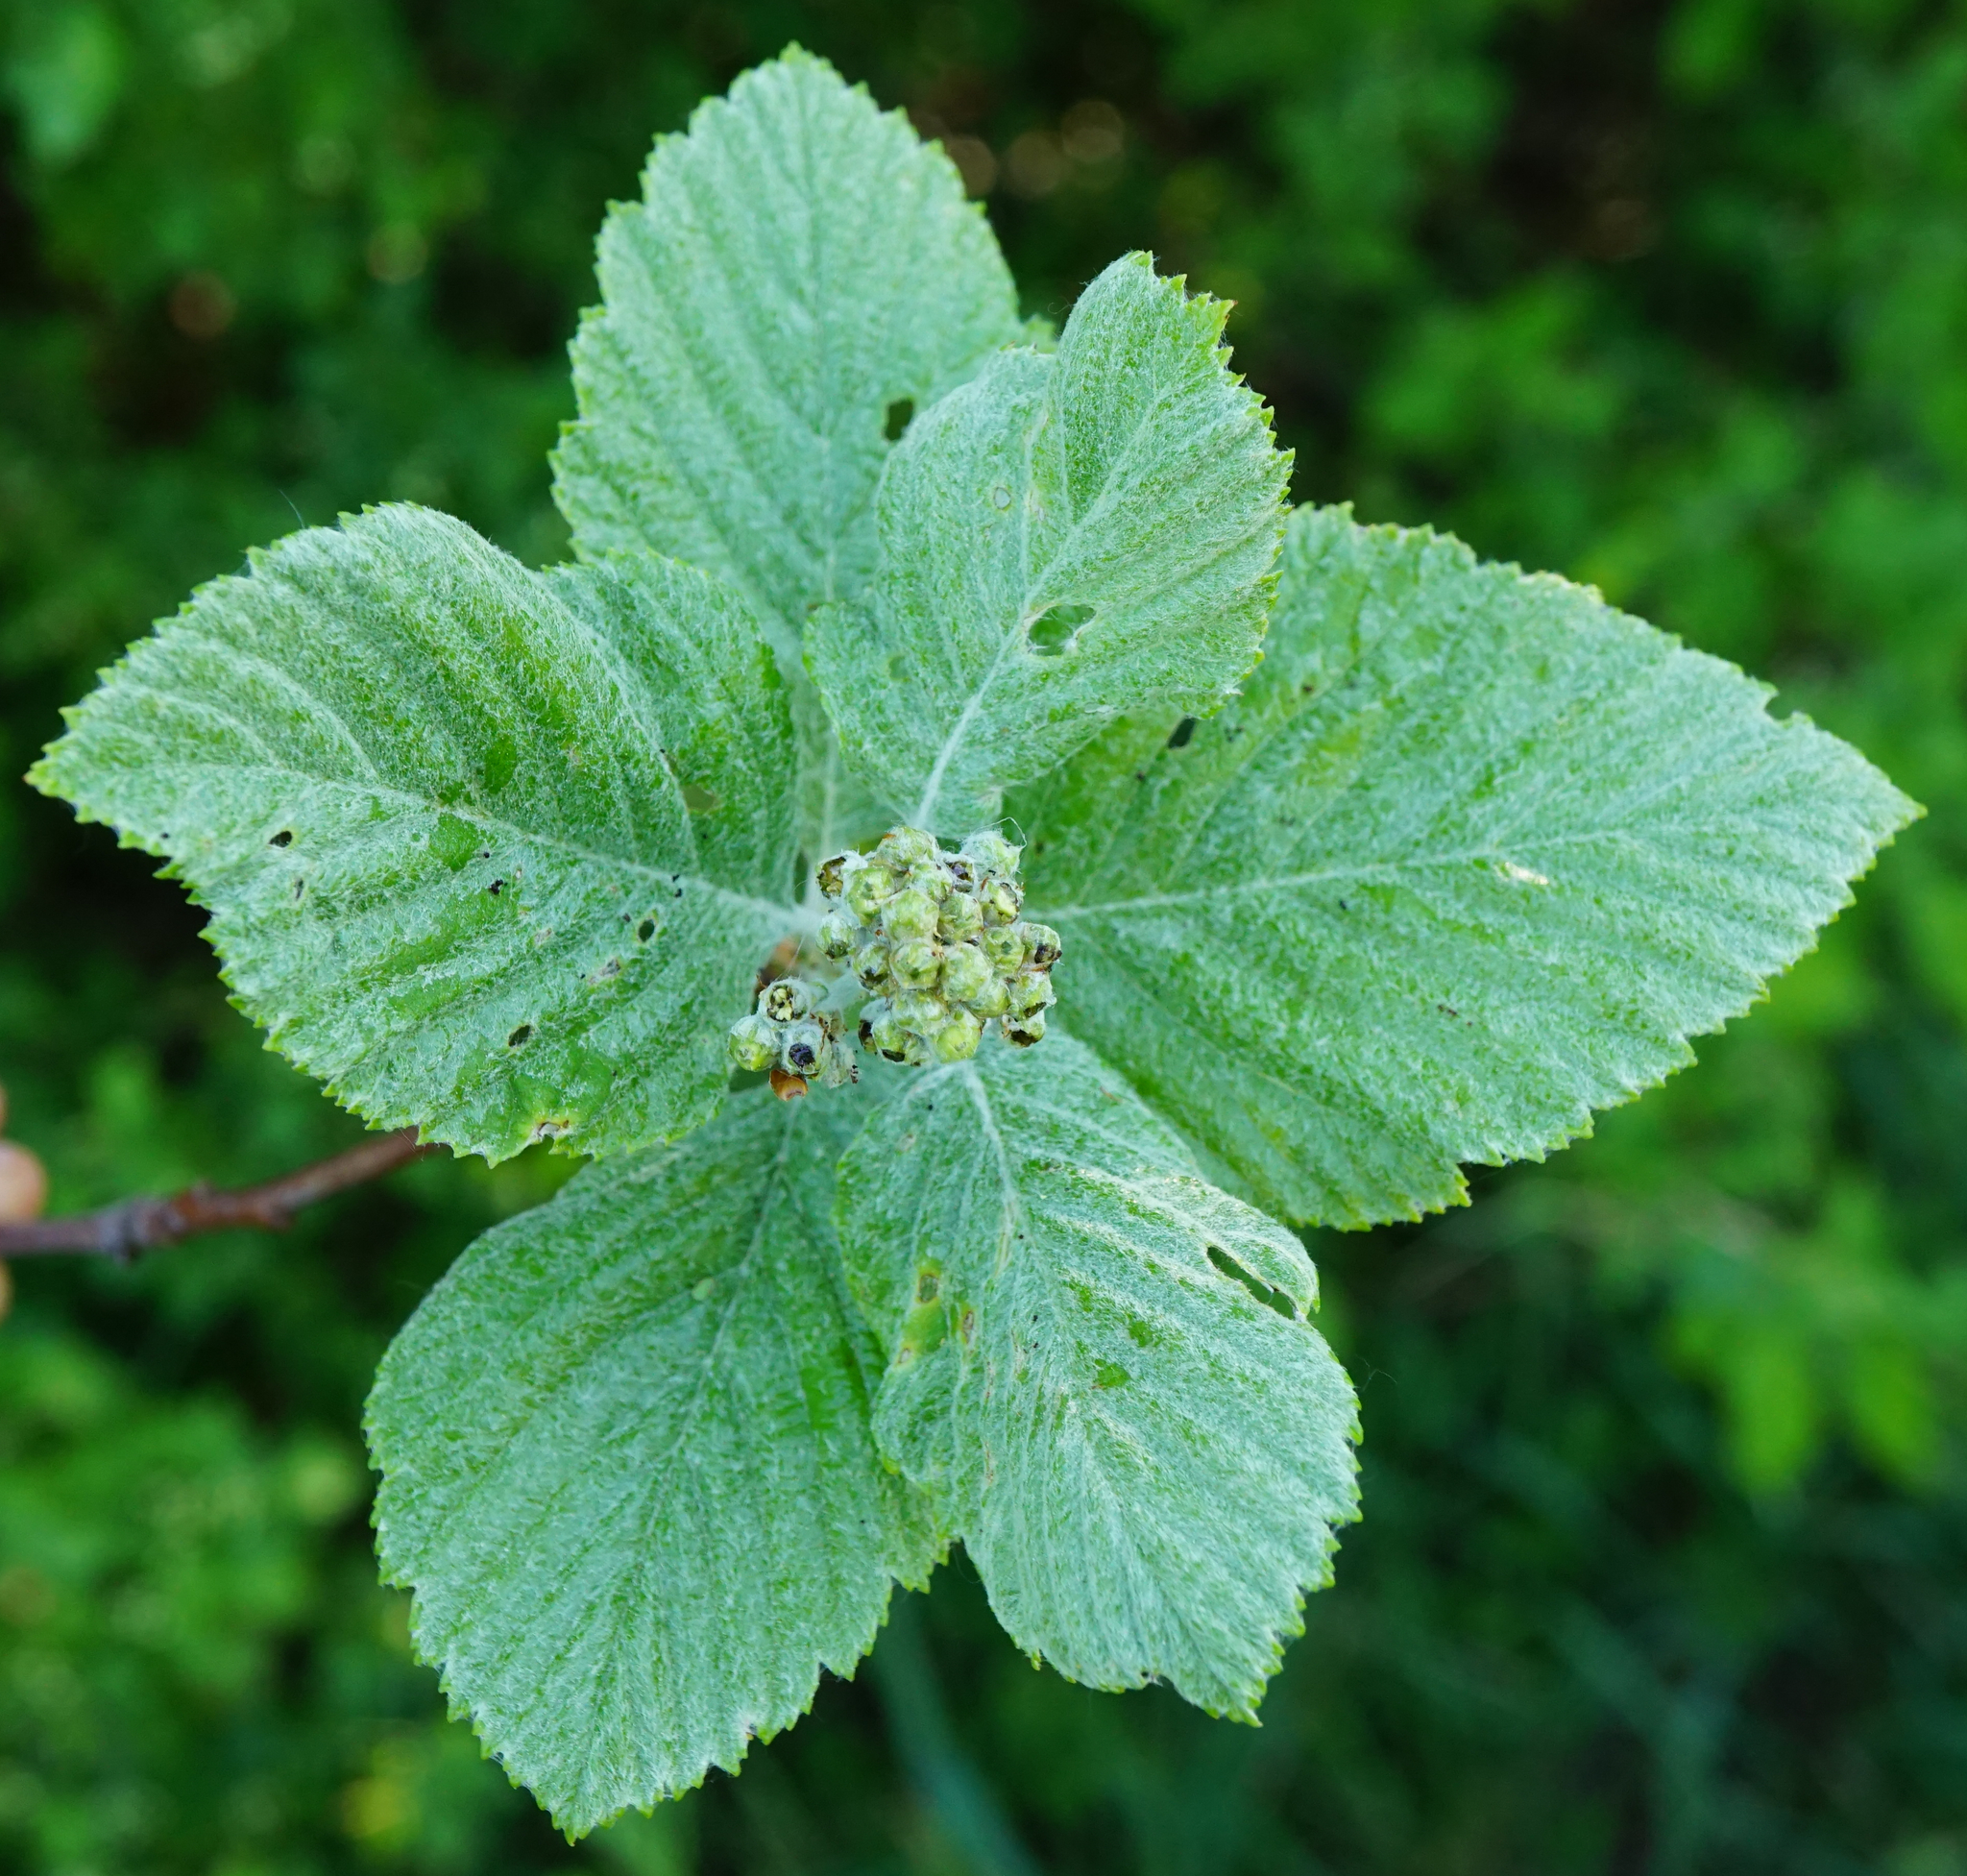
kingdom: Plantae
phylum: Tracheophyta
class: Magnoliopsida
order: Rosales
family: Rosaceae
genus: Aria
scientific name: Aria edulis
